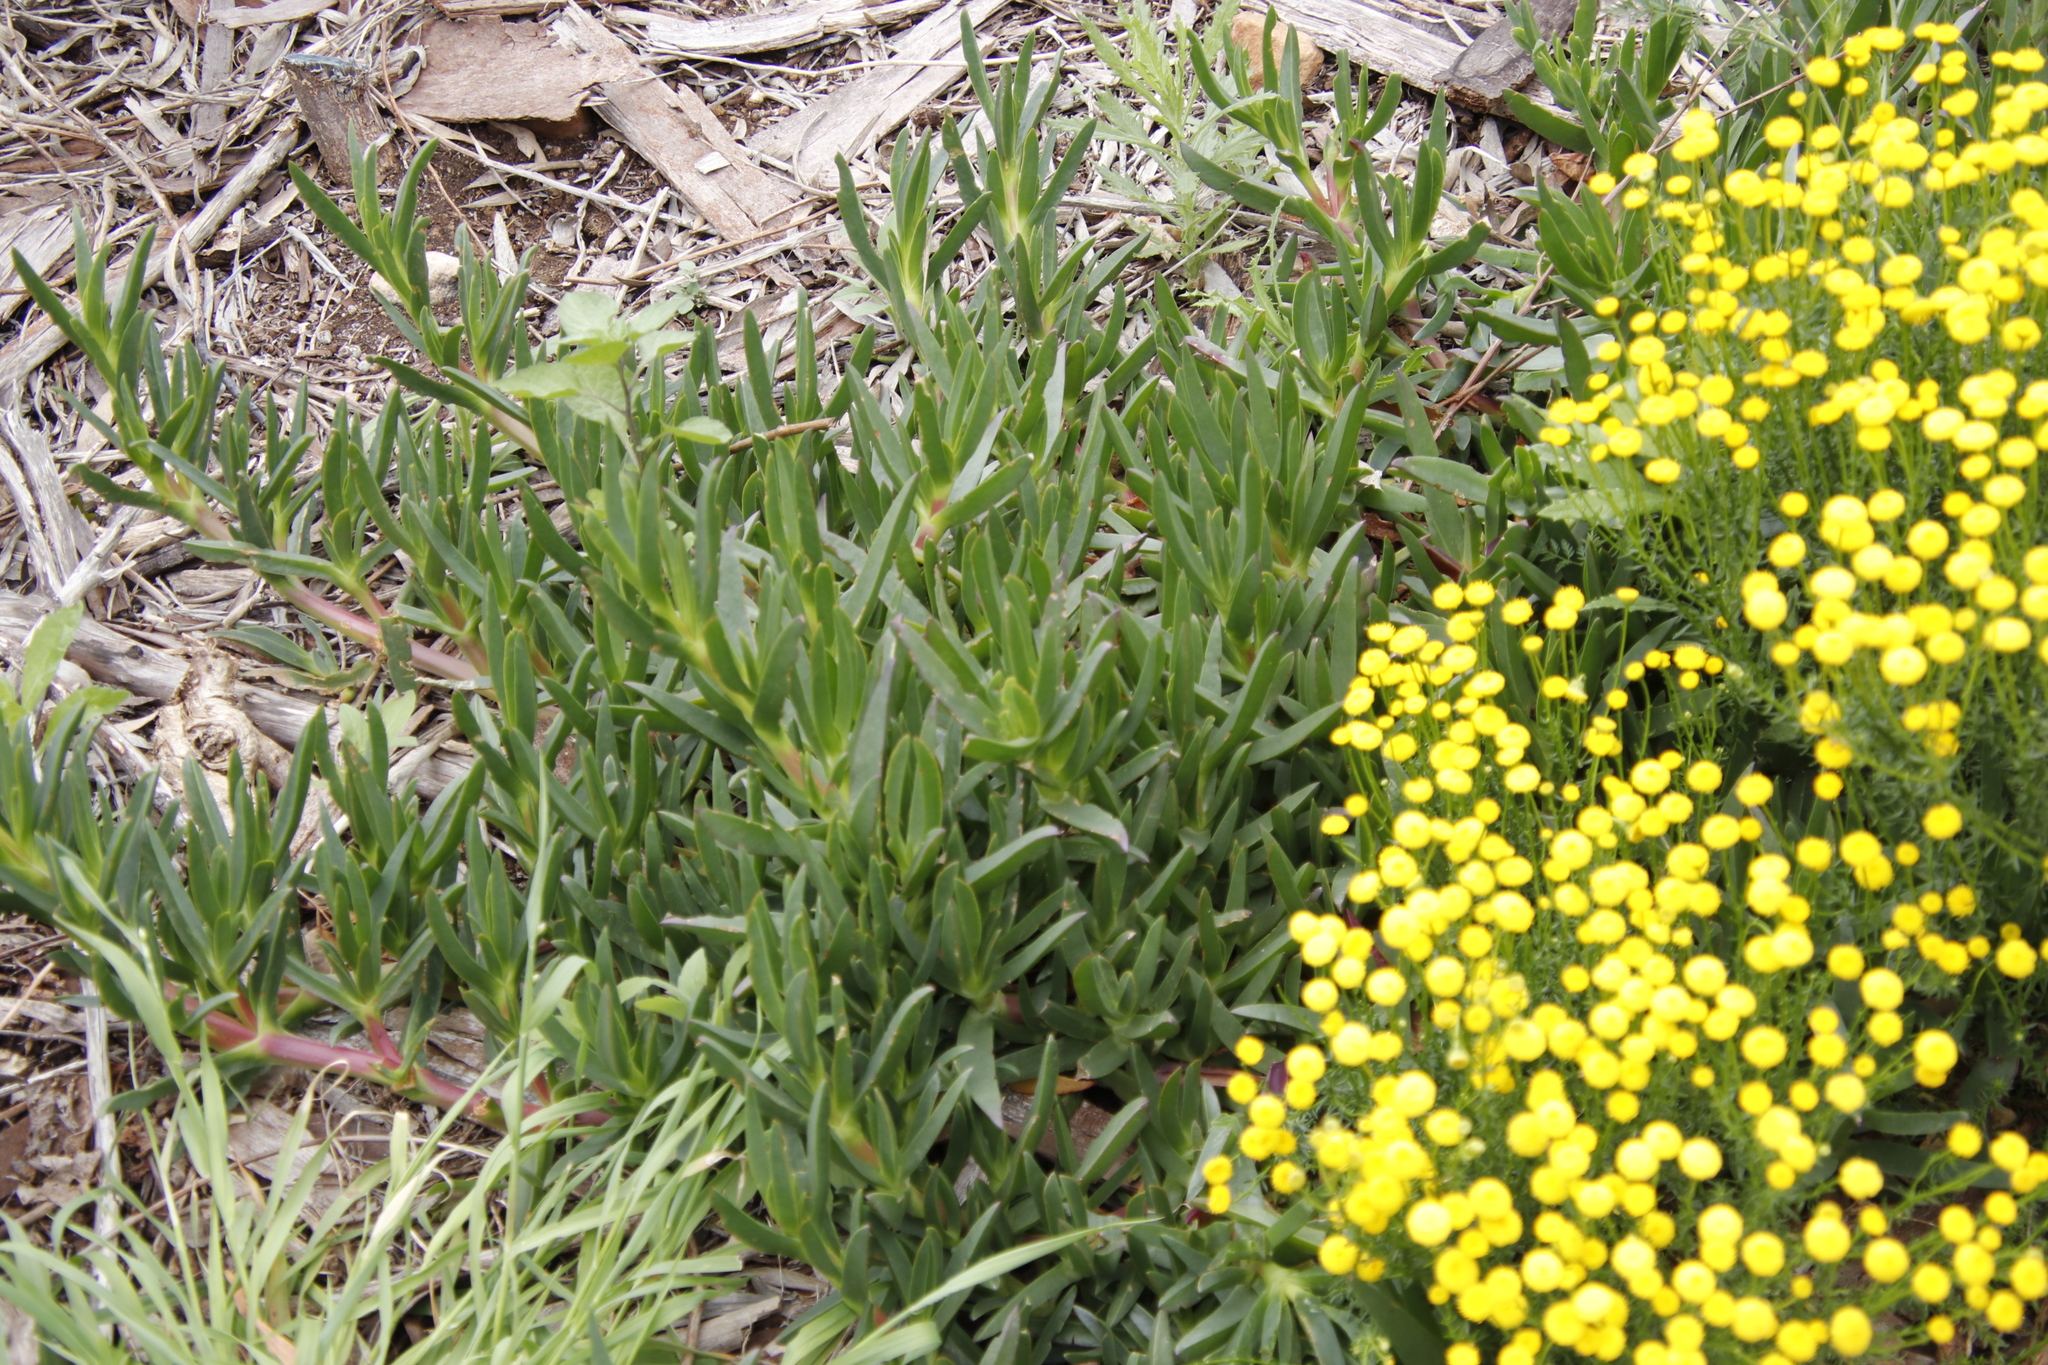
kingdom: Plantae
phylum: Tracheophyta
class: Magnoliopsida
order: Caryophyllales
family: Aizoaceae
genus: Carpobrotus
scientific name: Carpobrotus edulis
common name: Hottentot-fig
